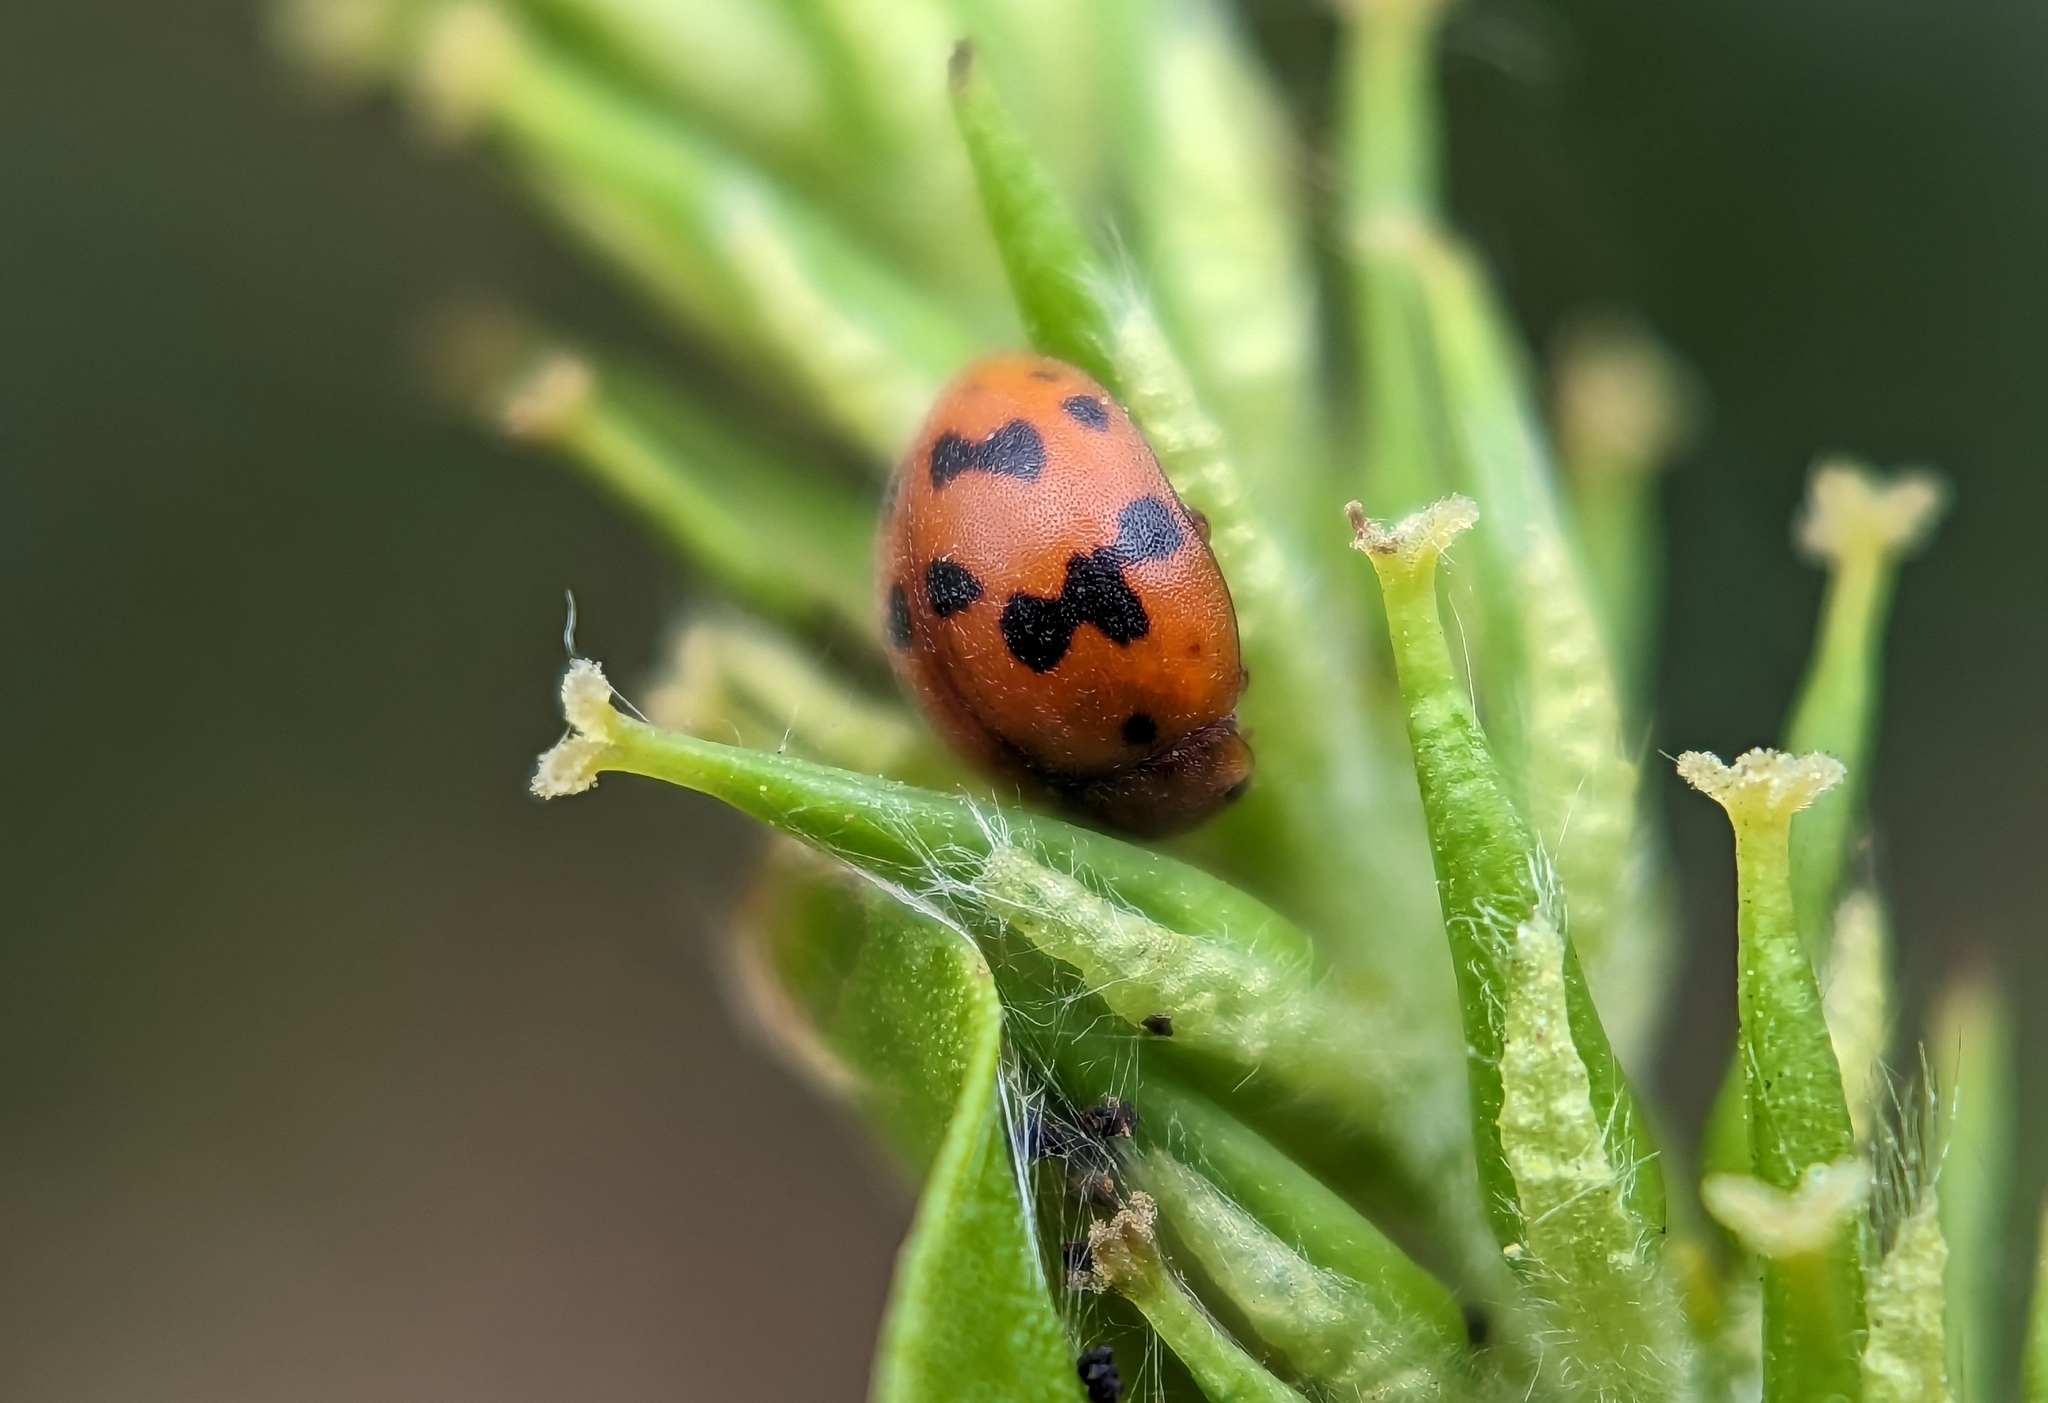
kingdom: Animalia
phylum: Arthropoda
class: Insecta
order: Coleoptera
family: Coccinellidae
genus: Subcoccinella
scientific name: Subcoccinella vigintiquatuorpunctata
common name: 24-spot ladybird
